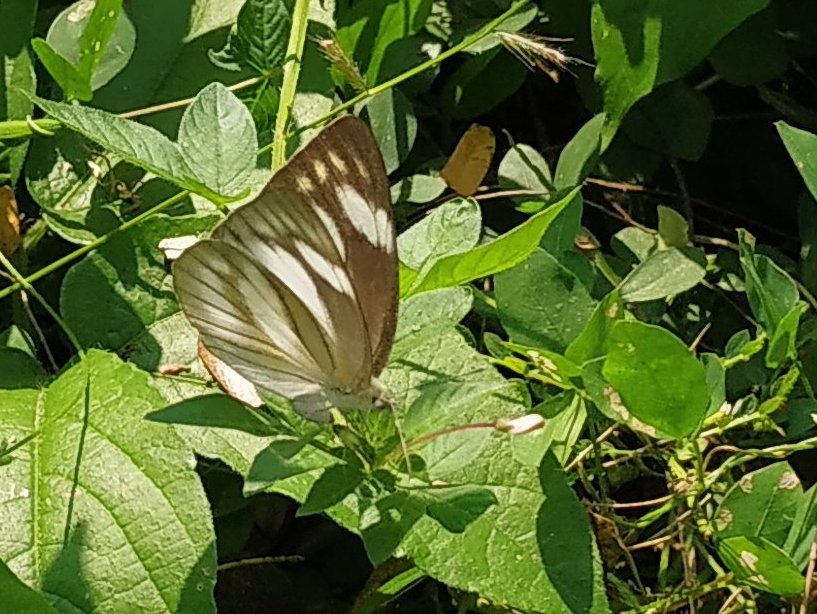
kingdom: Animalia
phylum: Arthropoda
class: Insecta
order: Lepidoptera
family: Pieridae
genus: Appias
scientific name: Appias libythea
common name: Striped albatross
